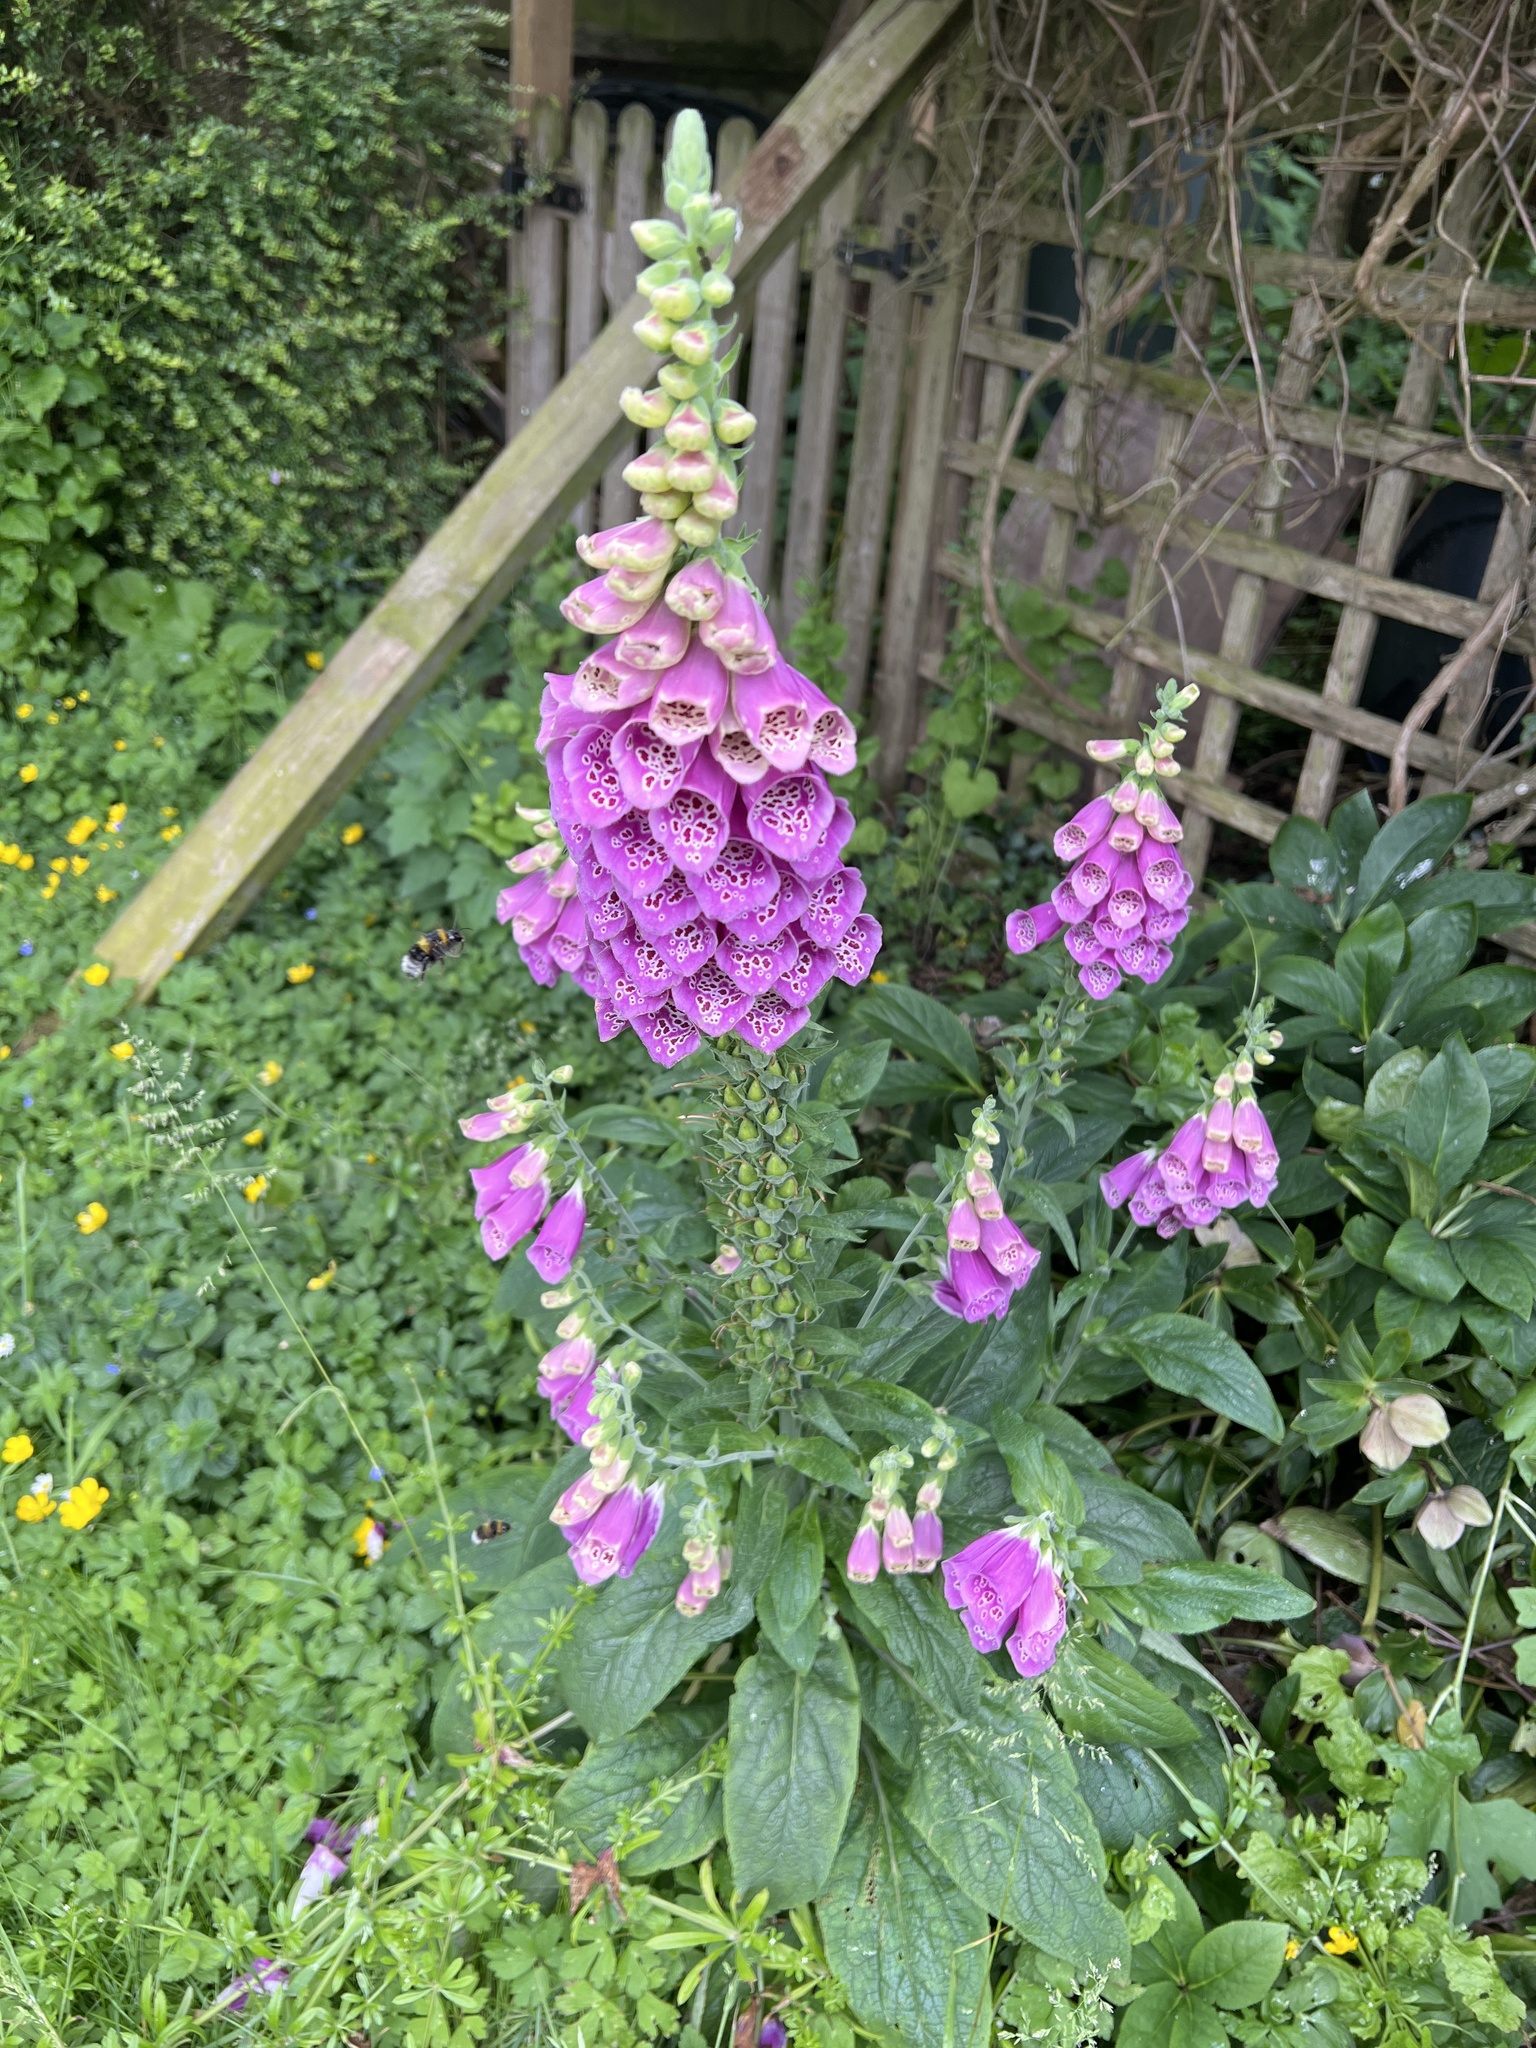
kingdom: Plantae
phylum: Tracheophyta
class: Magnoliopsida
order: Lamiales
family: Plantaginaceae
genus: Digitalis
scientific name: Digitalis purpurea
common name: Foxglove
